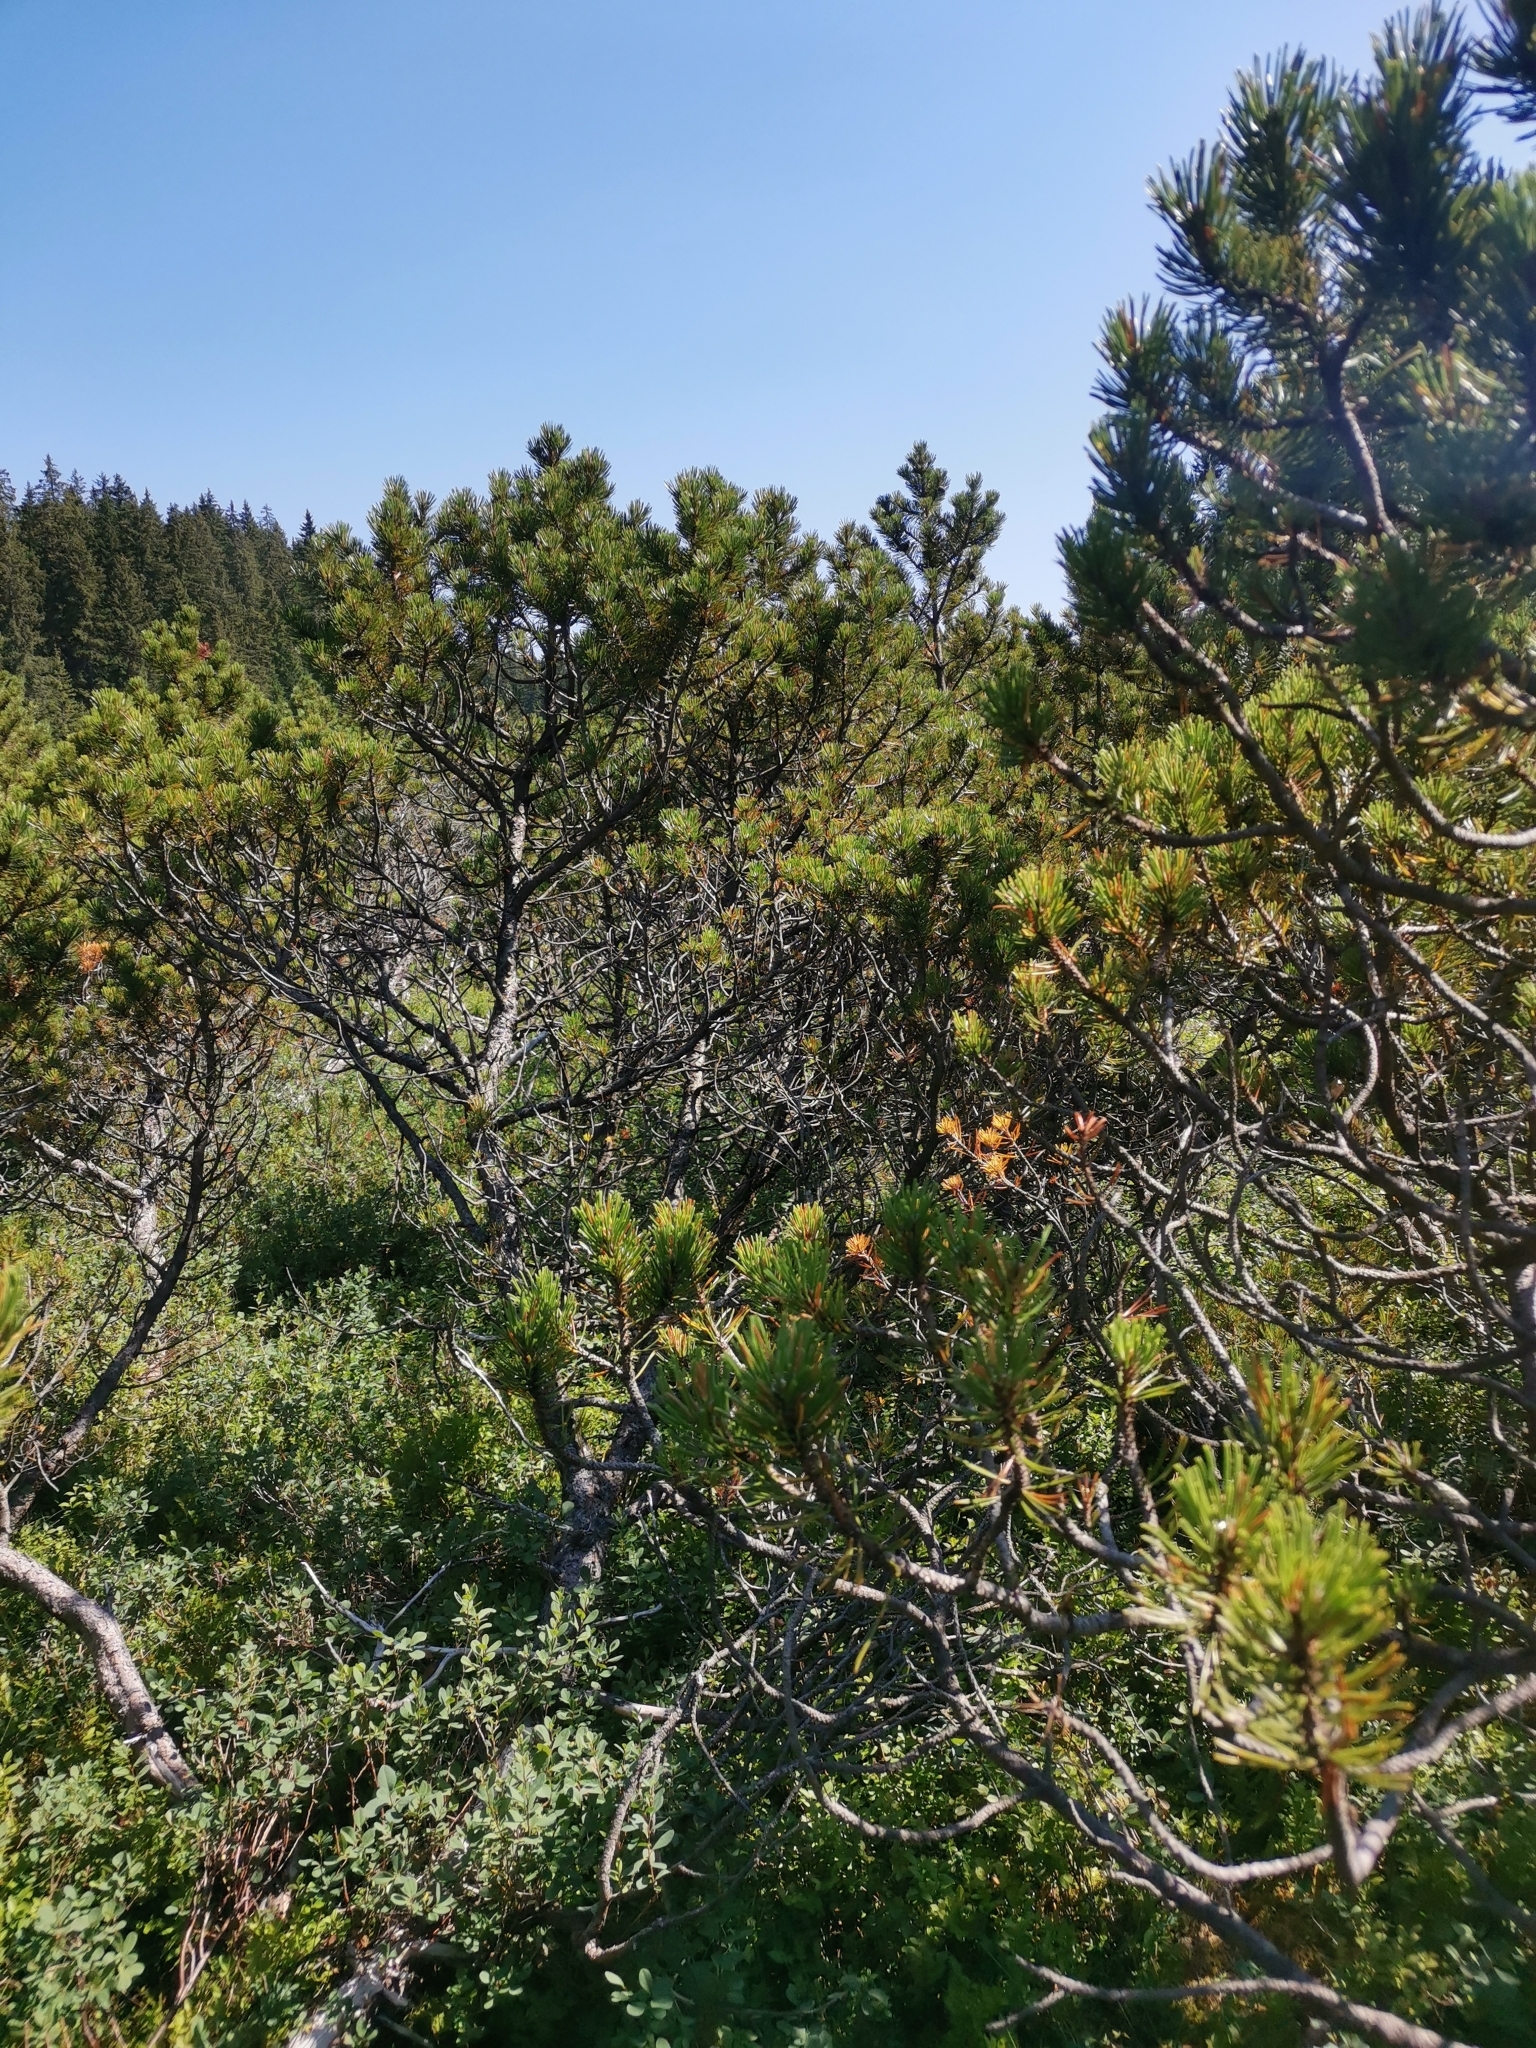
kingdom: Plantae
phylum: Tracheophyta
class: Pinopsida
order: Pinales
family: Pinaceae
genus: Pinus
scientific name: Pinus mugo
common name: Mugo pine
